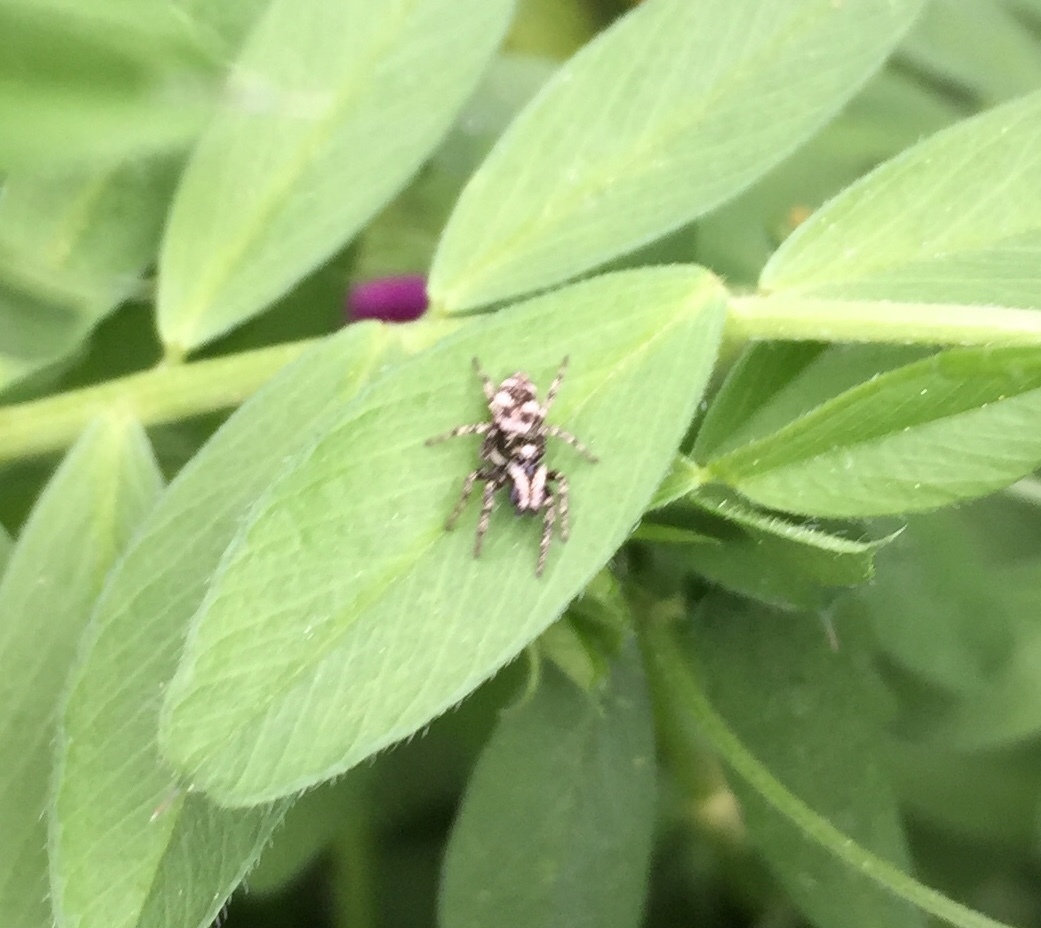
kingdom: Animalia
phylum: Arthropoda
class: Arachnida
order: Araneae
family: Salticidae
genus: Salticus
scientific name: Salticus scenicus
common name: Zebra jumper
